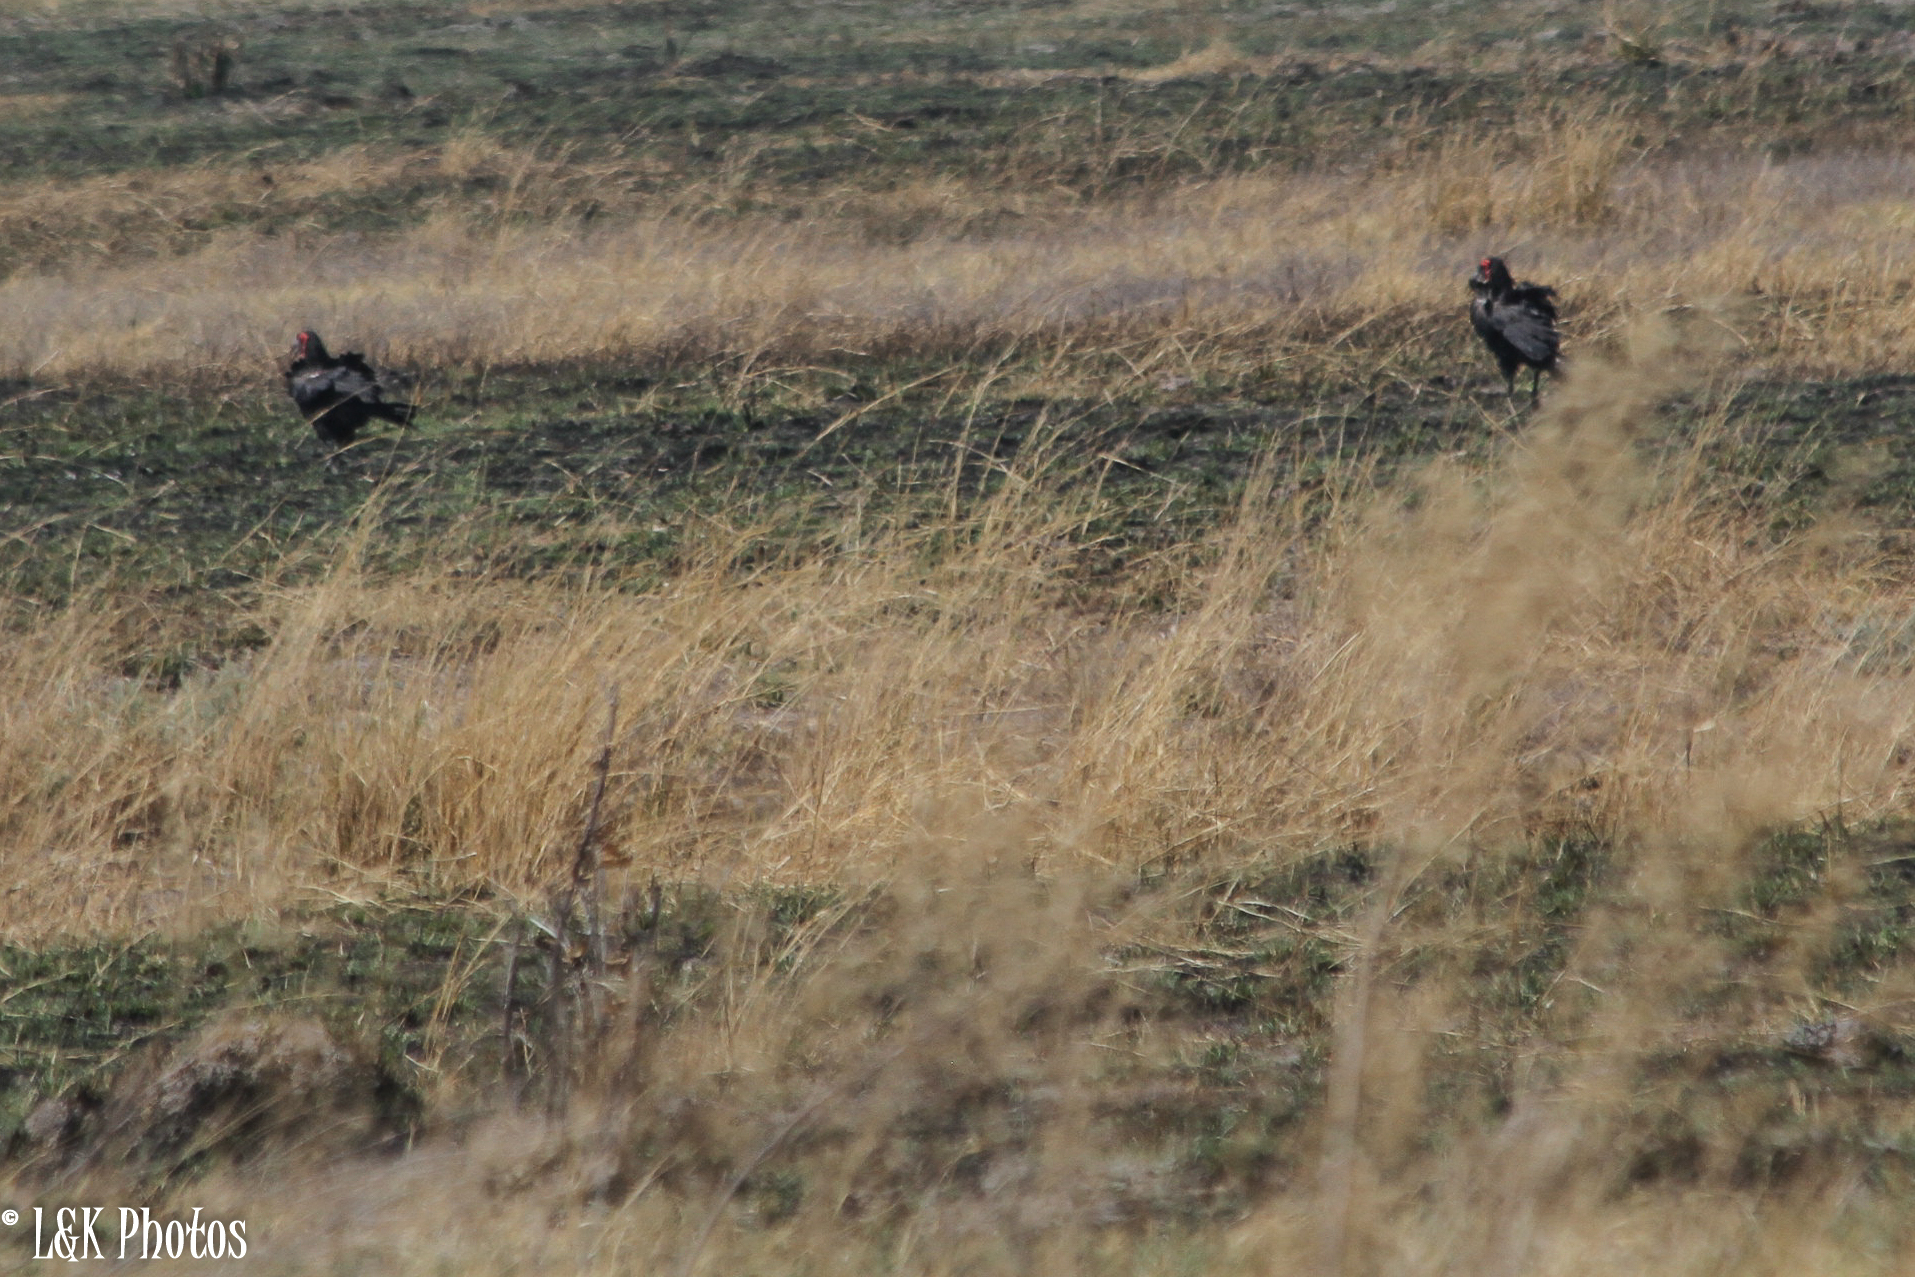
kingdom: Animalia
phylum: Chordata
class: Aves
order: Bucerotiformes
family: Bucorvidae
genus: Bucorvus
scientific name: Bucorvus leadbeateri
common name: Southern ground-hornbill
